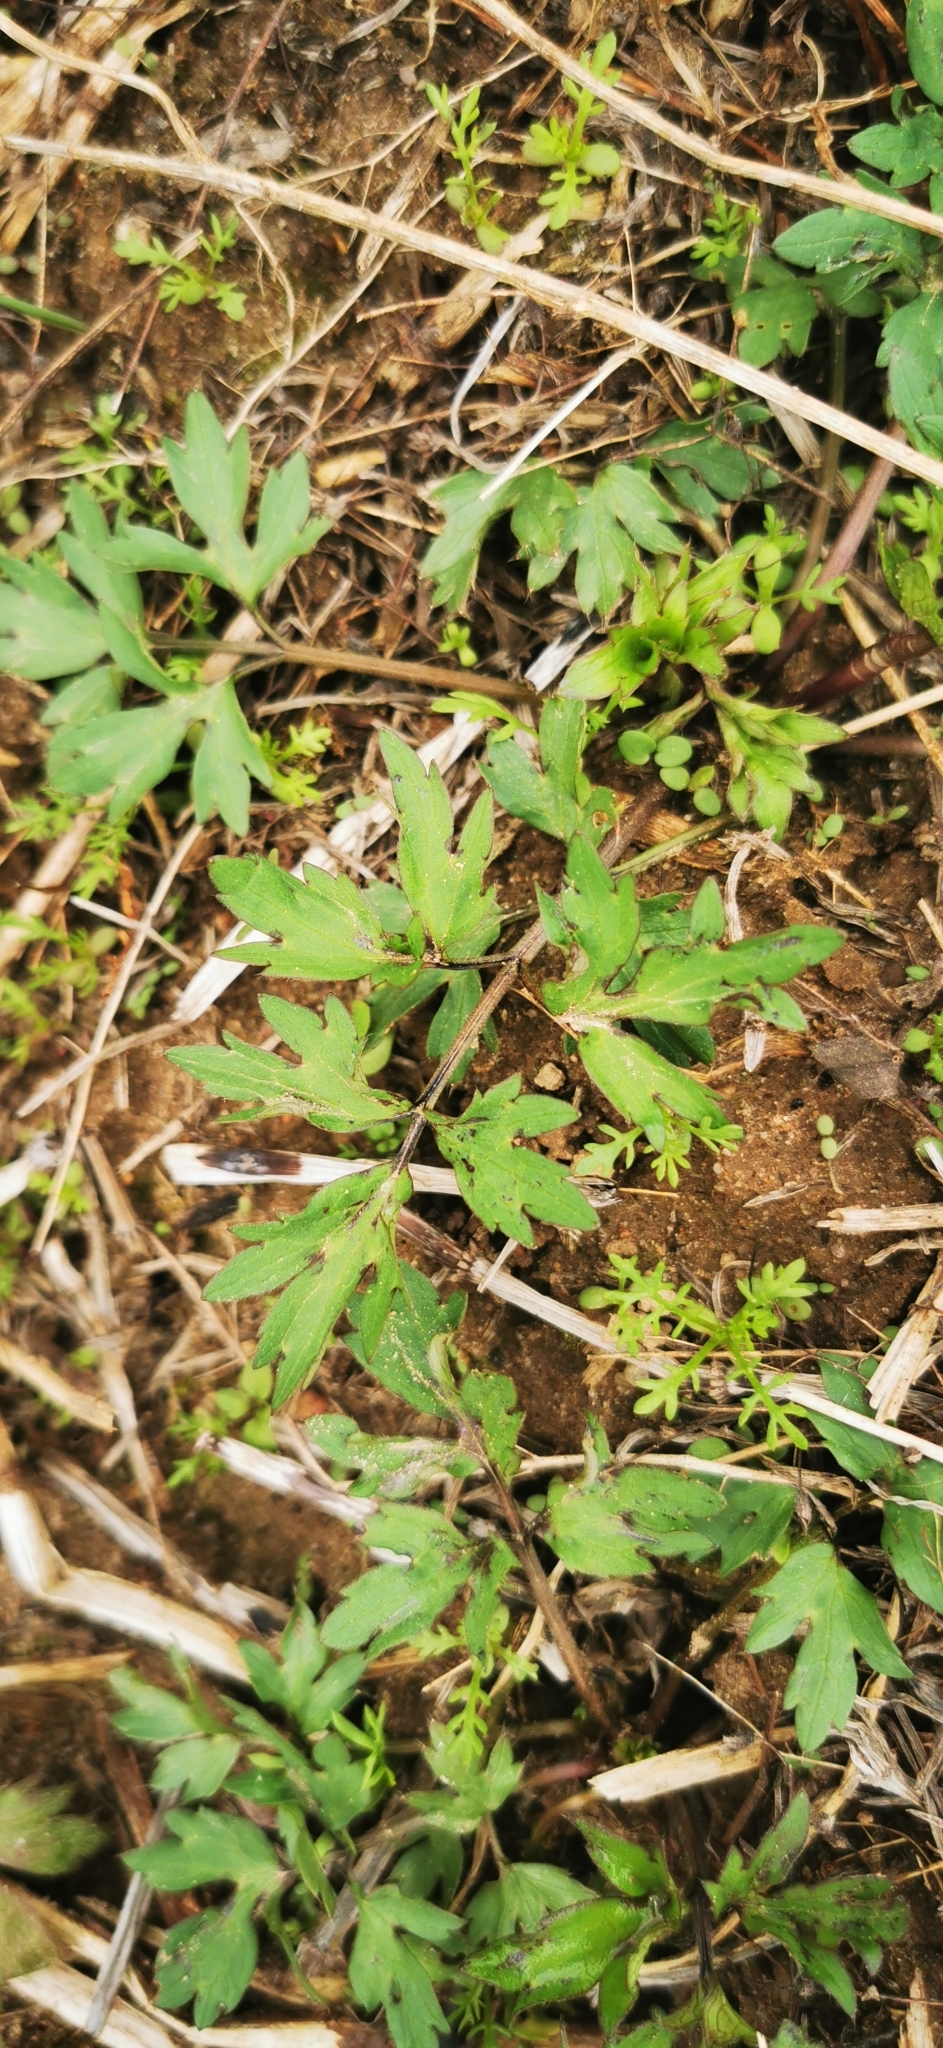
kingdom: Plantae
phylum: Tracheophyta
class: Magnoliopsida
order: Ranunculales
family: Ranunculaceae
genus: Ranunculus
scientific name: Ranunculus repens
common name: Creeping buttercup
